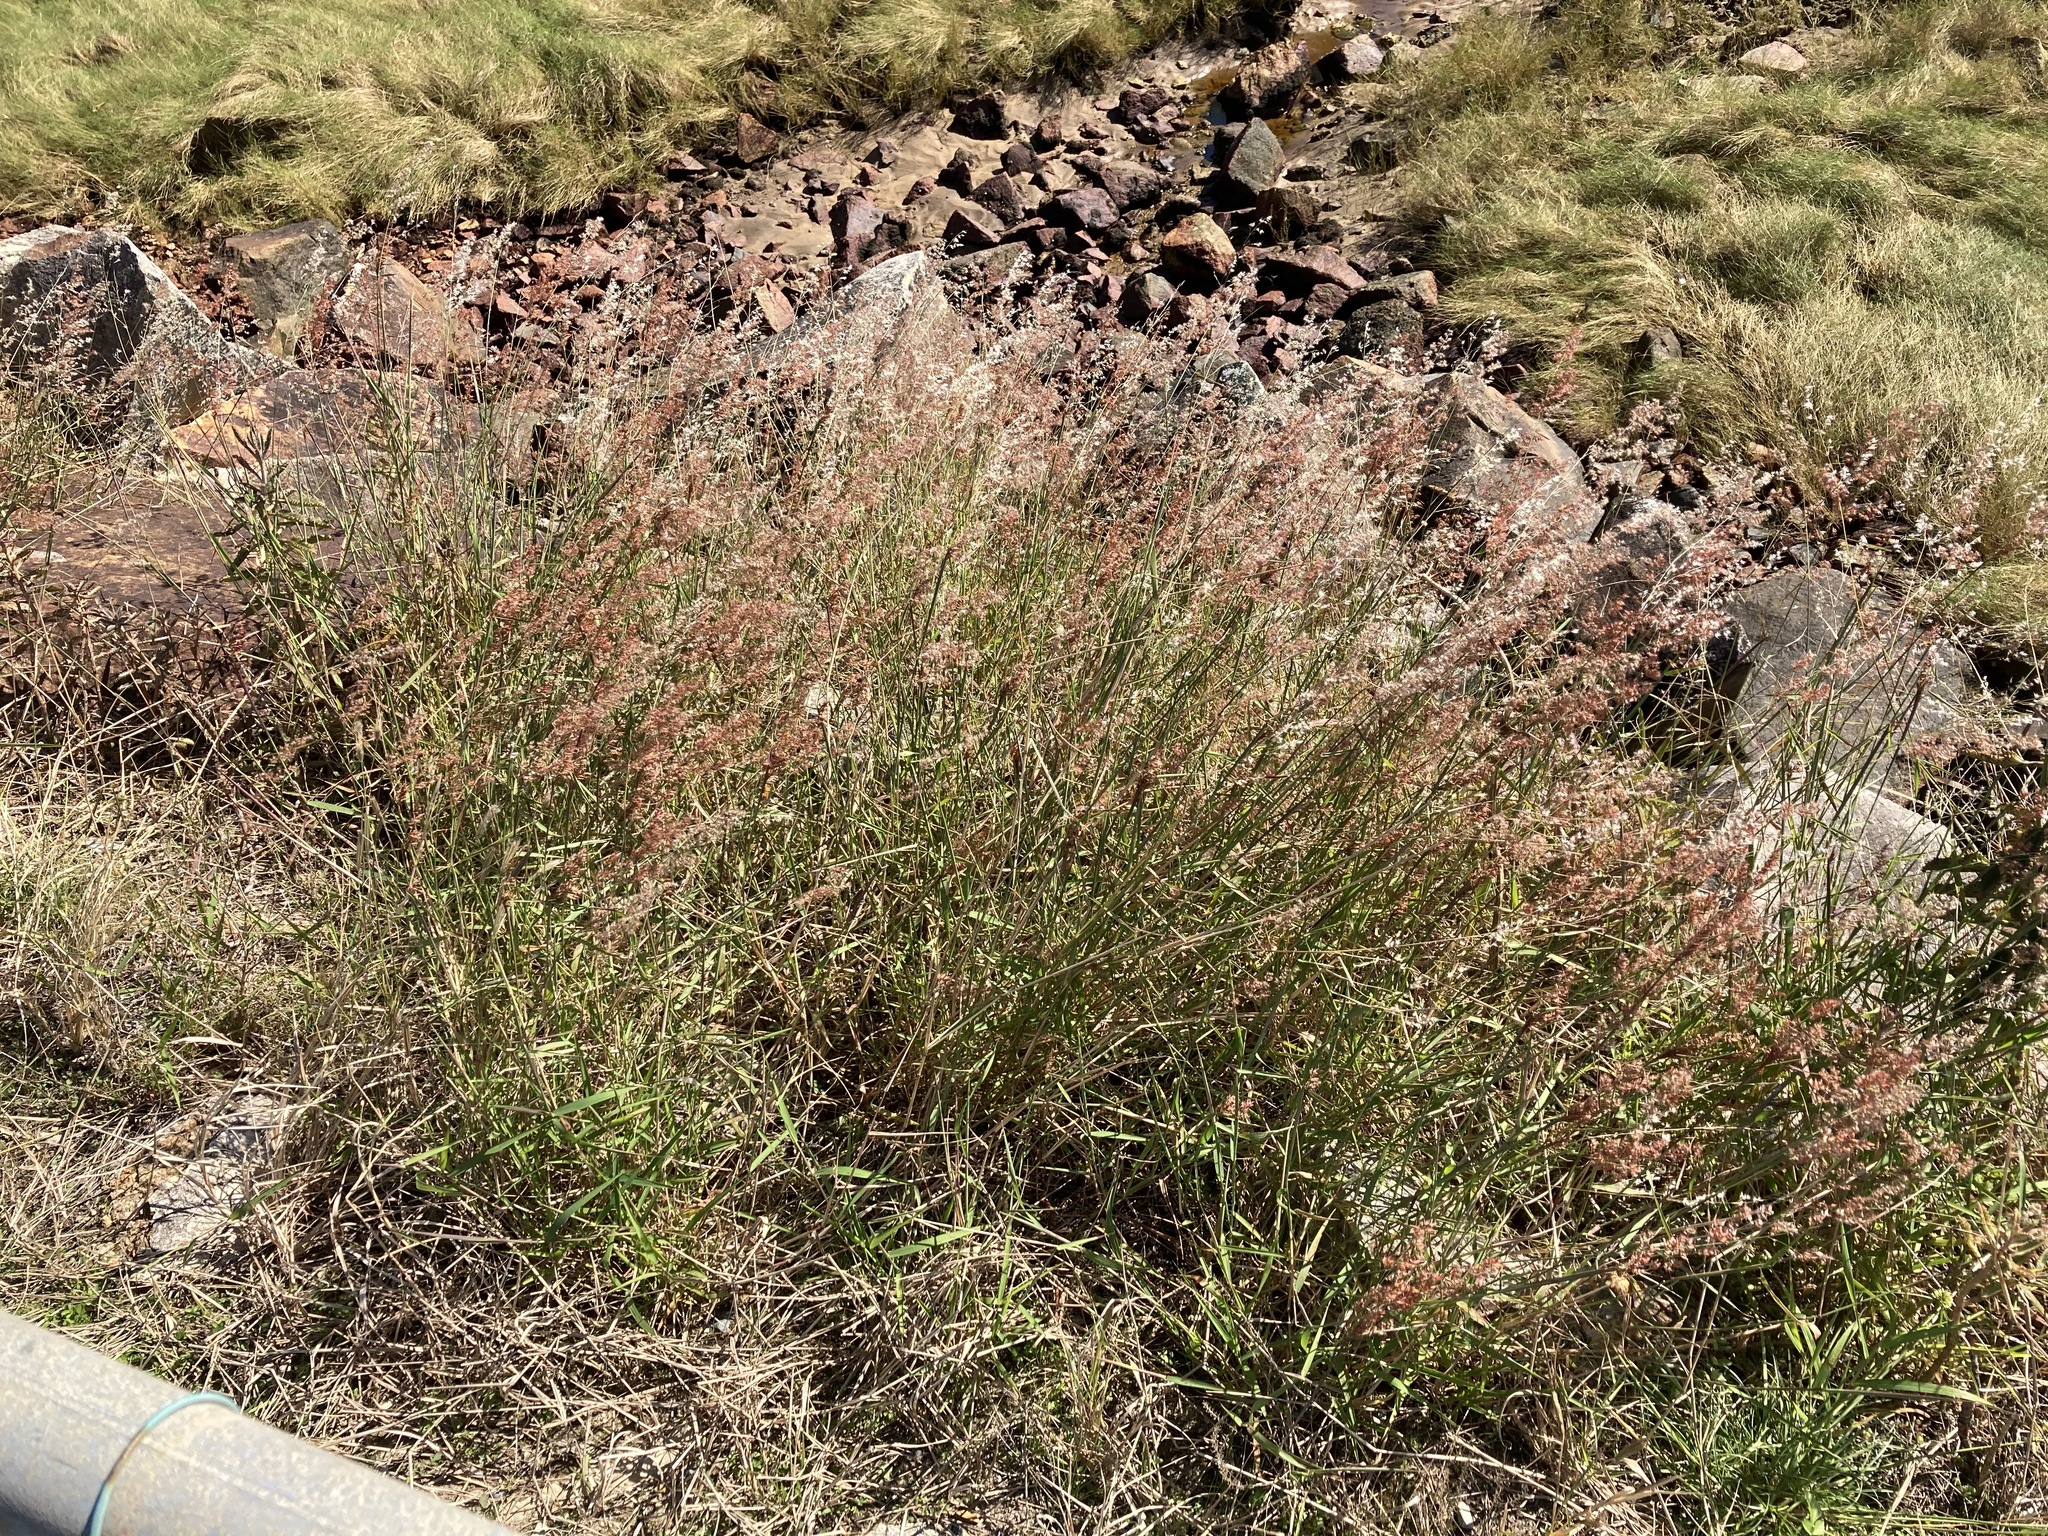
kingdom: Plantae
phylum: Tracheophyta
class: Liliopsida
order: Poales
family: Poaceae
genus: Melinis
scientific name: Melinis repens
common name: Rose natal grass
